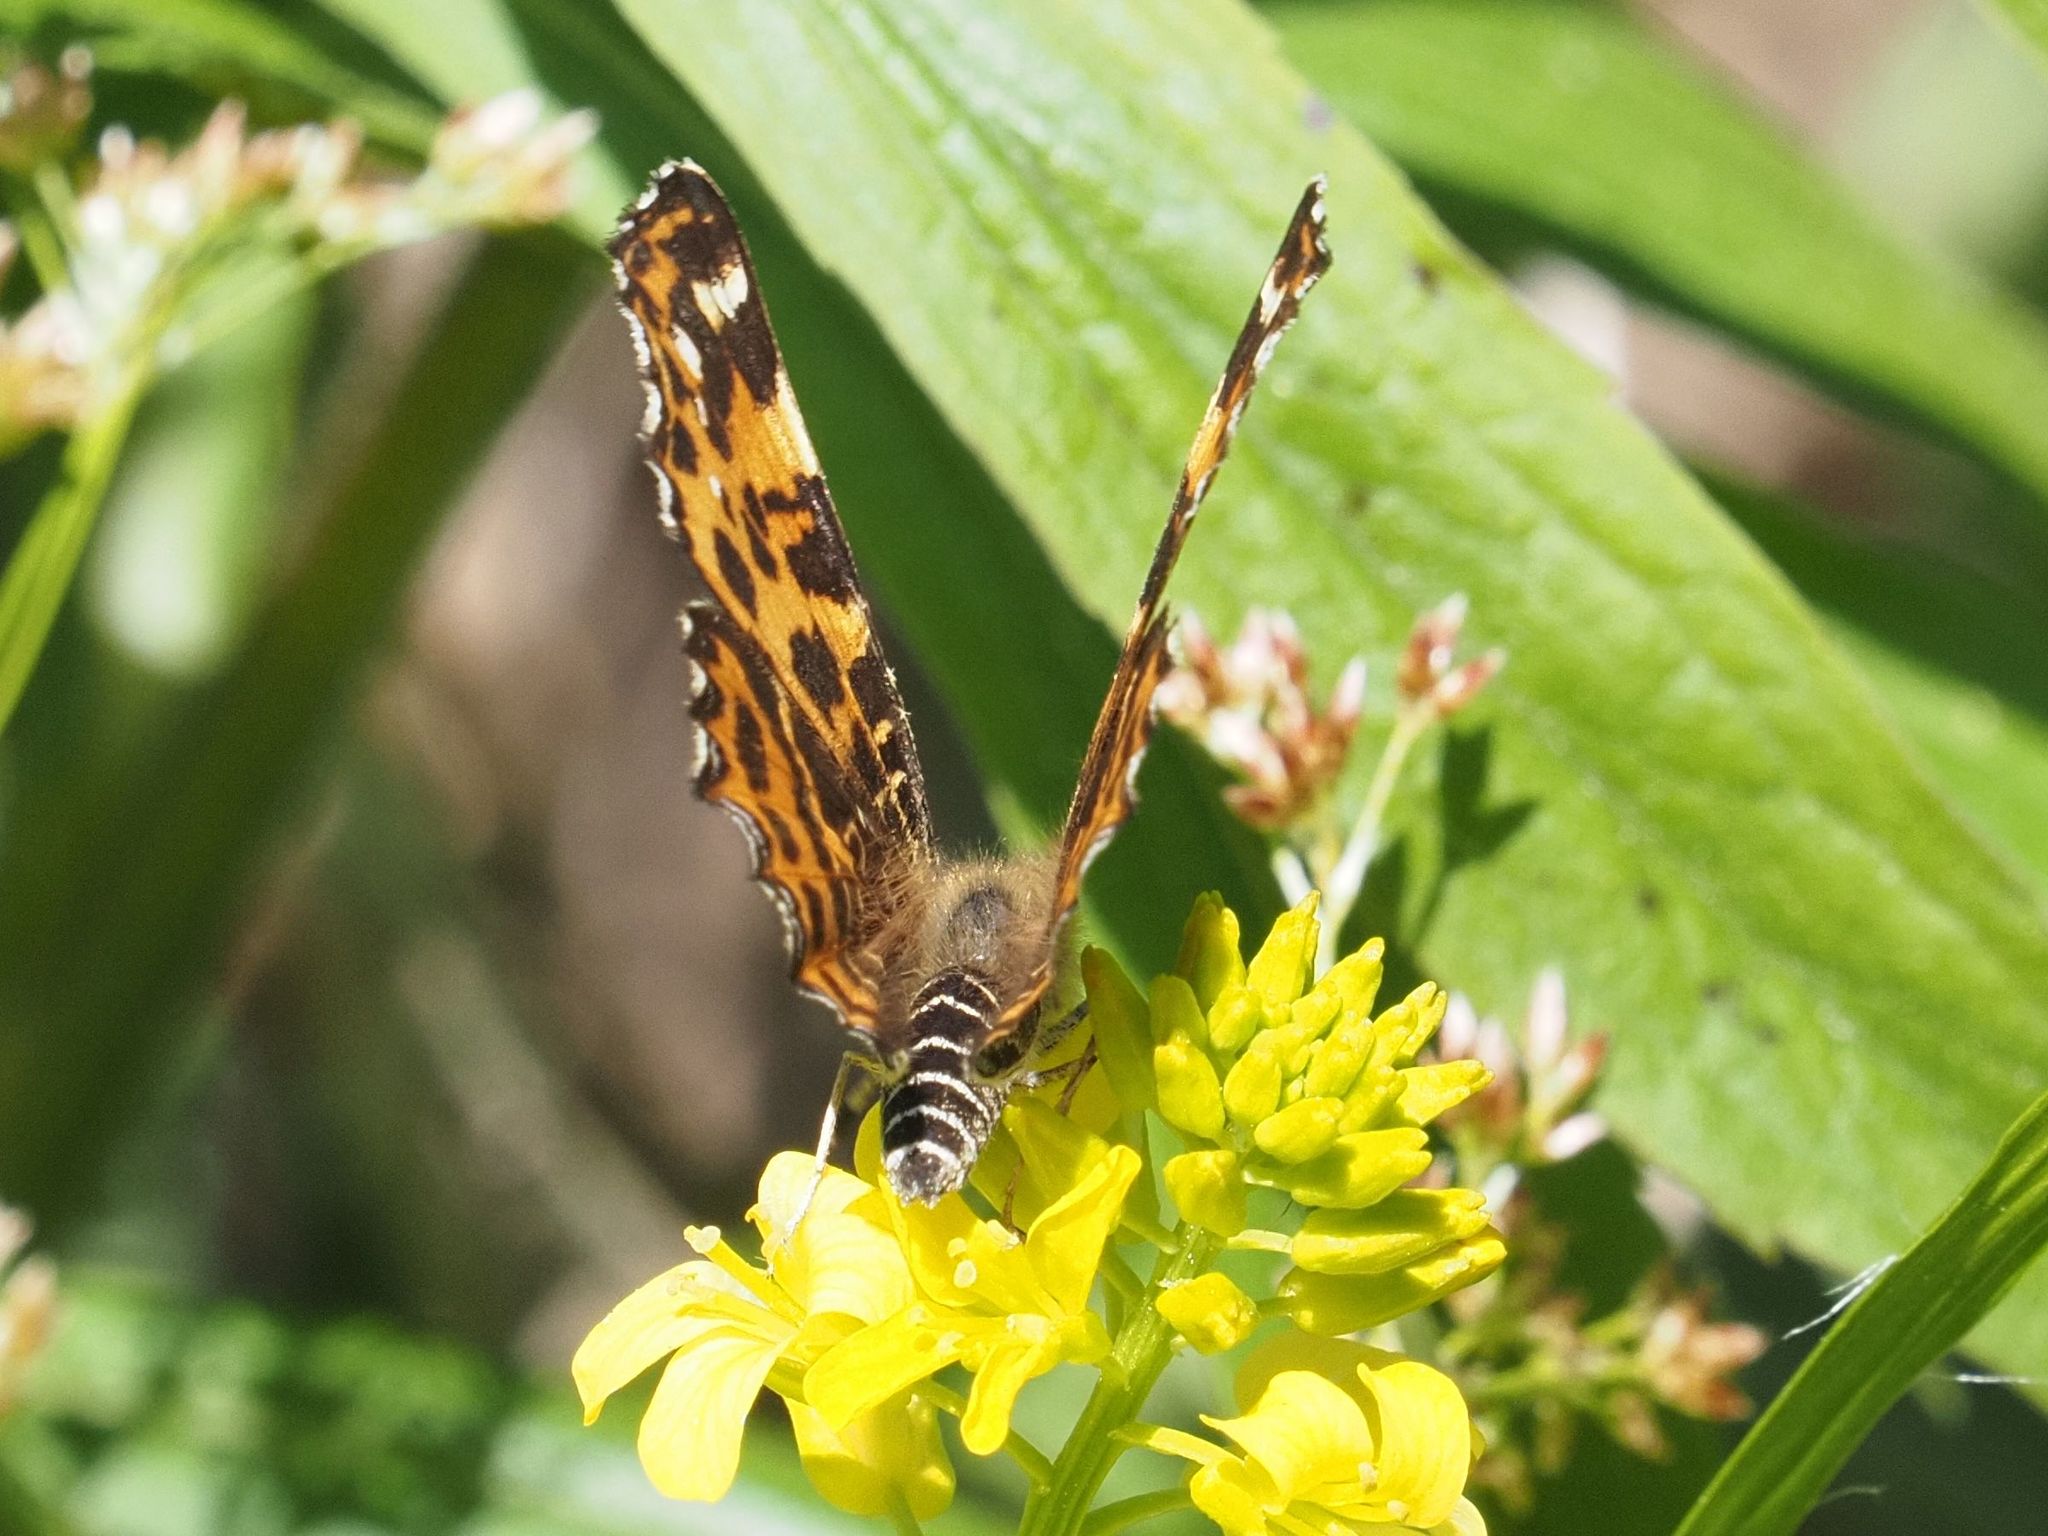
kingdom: Animalia
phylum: Arthropoda
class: Insecta
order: Lepidoptera
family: Nymphalidae
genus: Araschnia
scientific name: Araschnia levana
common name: Map butterfly
